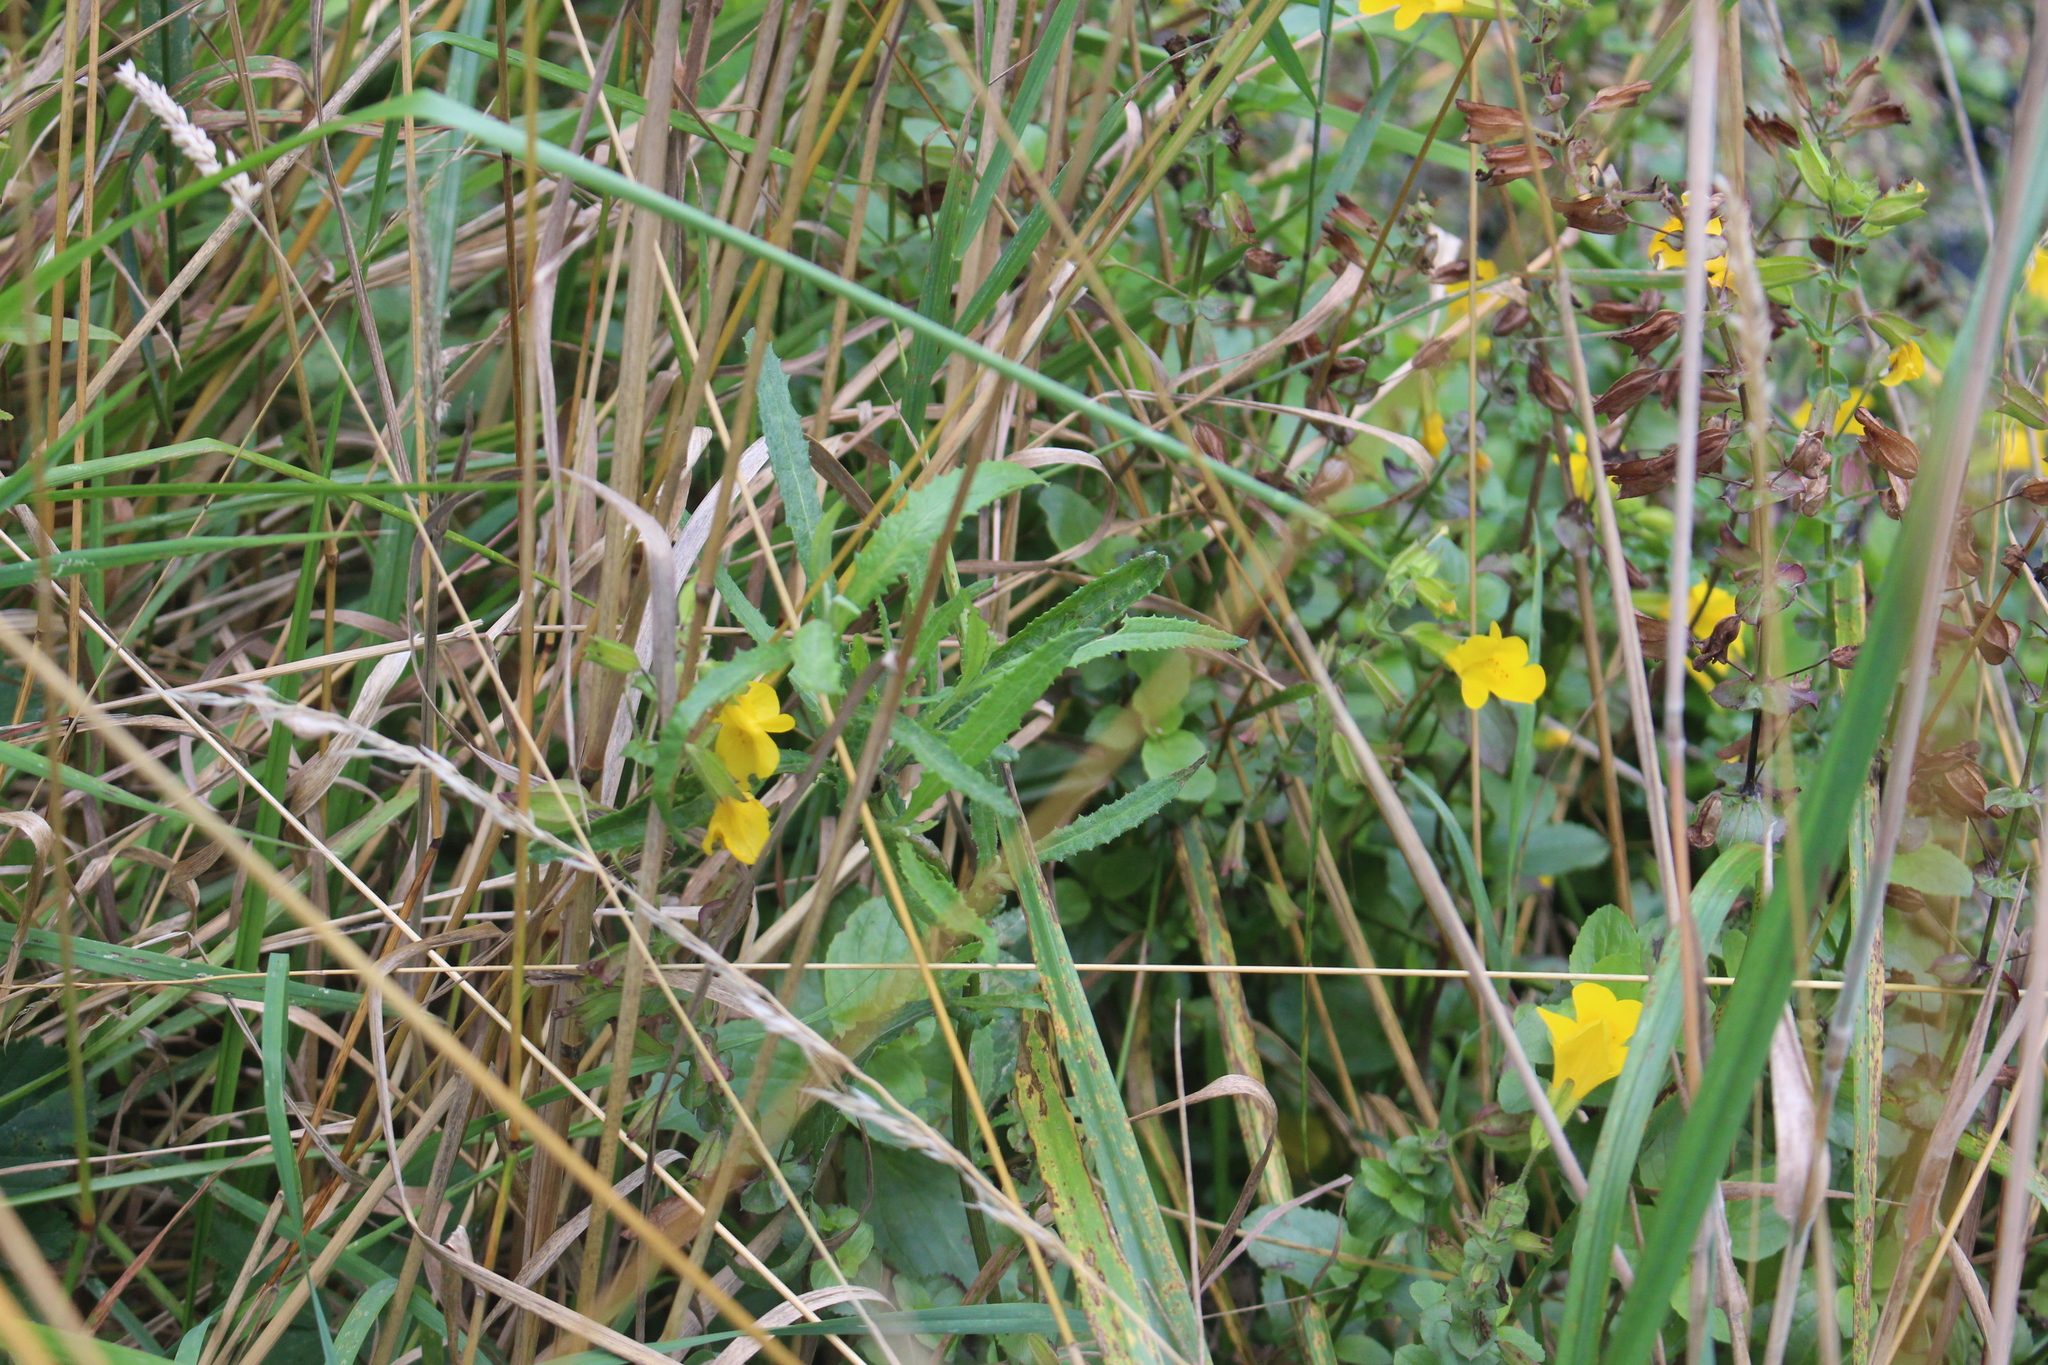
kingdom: Plantae
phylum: Tracheophyta
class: Magnoliopsida
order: Lamiales
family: Phrymaceae
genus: Erythranthe
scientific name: Erythranthe guttata
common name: Monkeyflower
